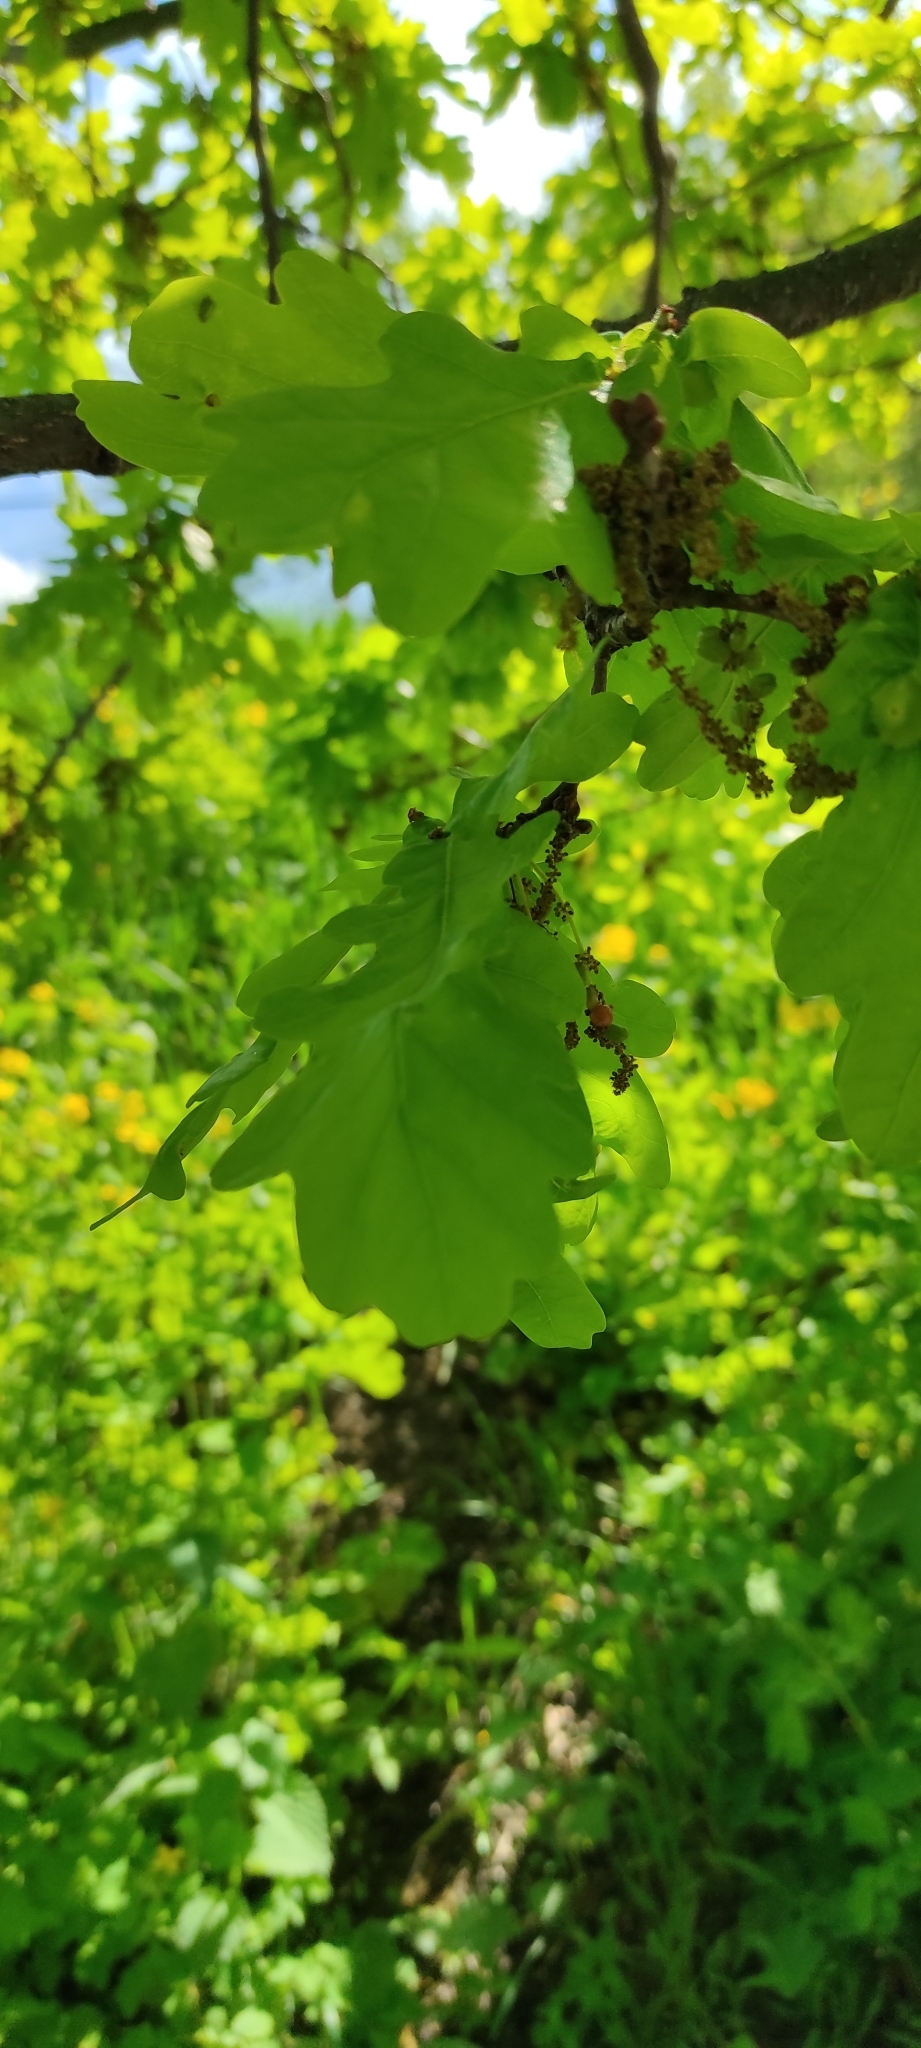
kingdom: Plantae
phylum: Tracheophyta
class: Magnoliopsida
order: Fagales
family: Fagaceae
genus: Quercus
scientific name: Quercus robur
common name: Pedunculate oak
